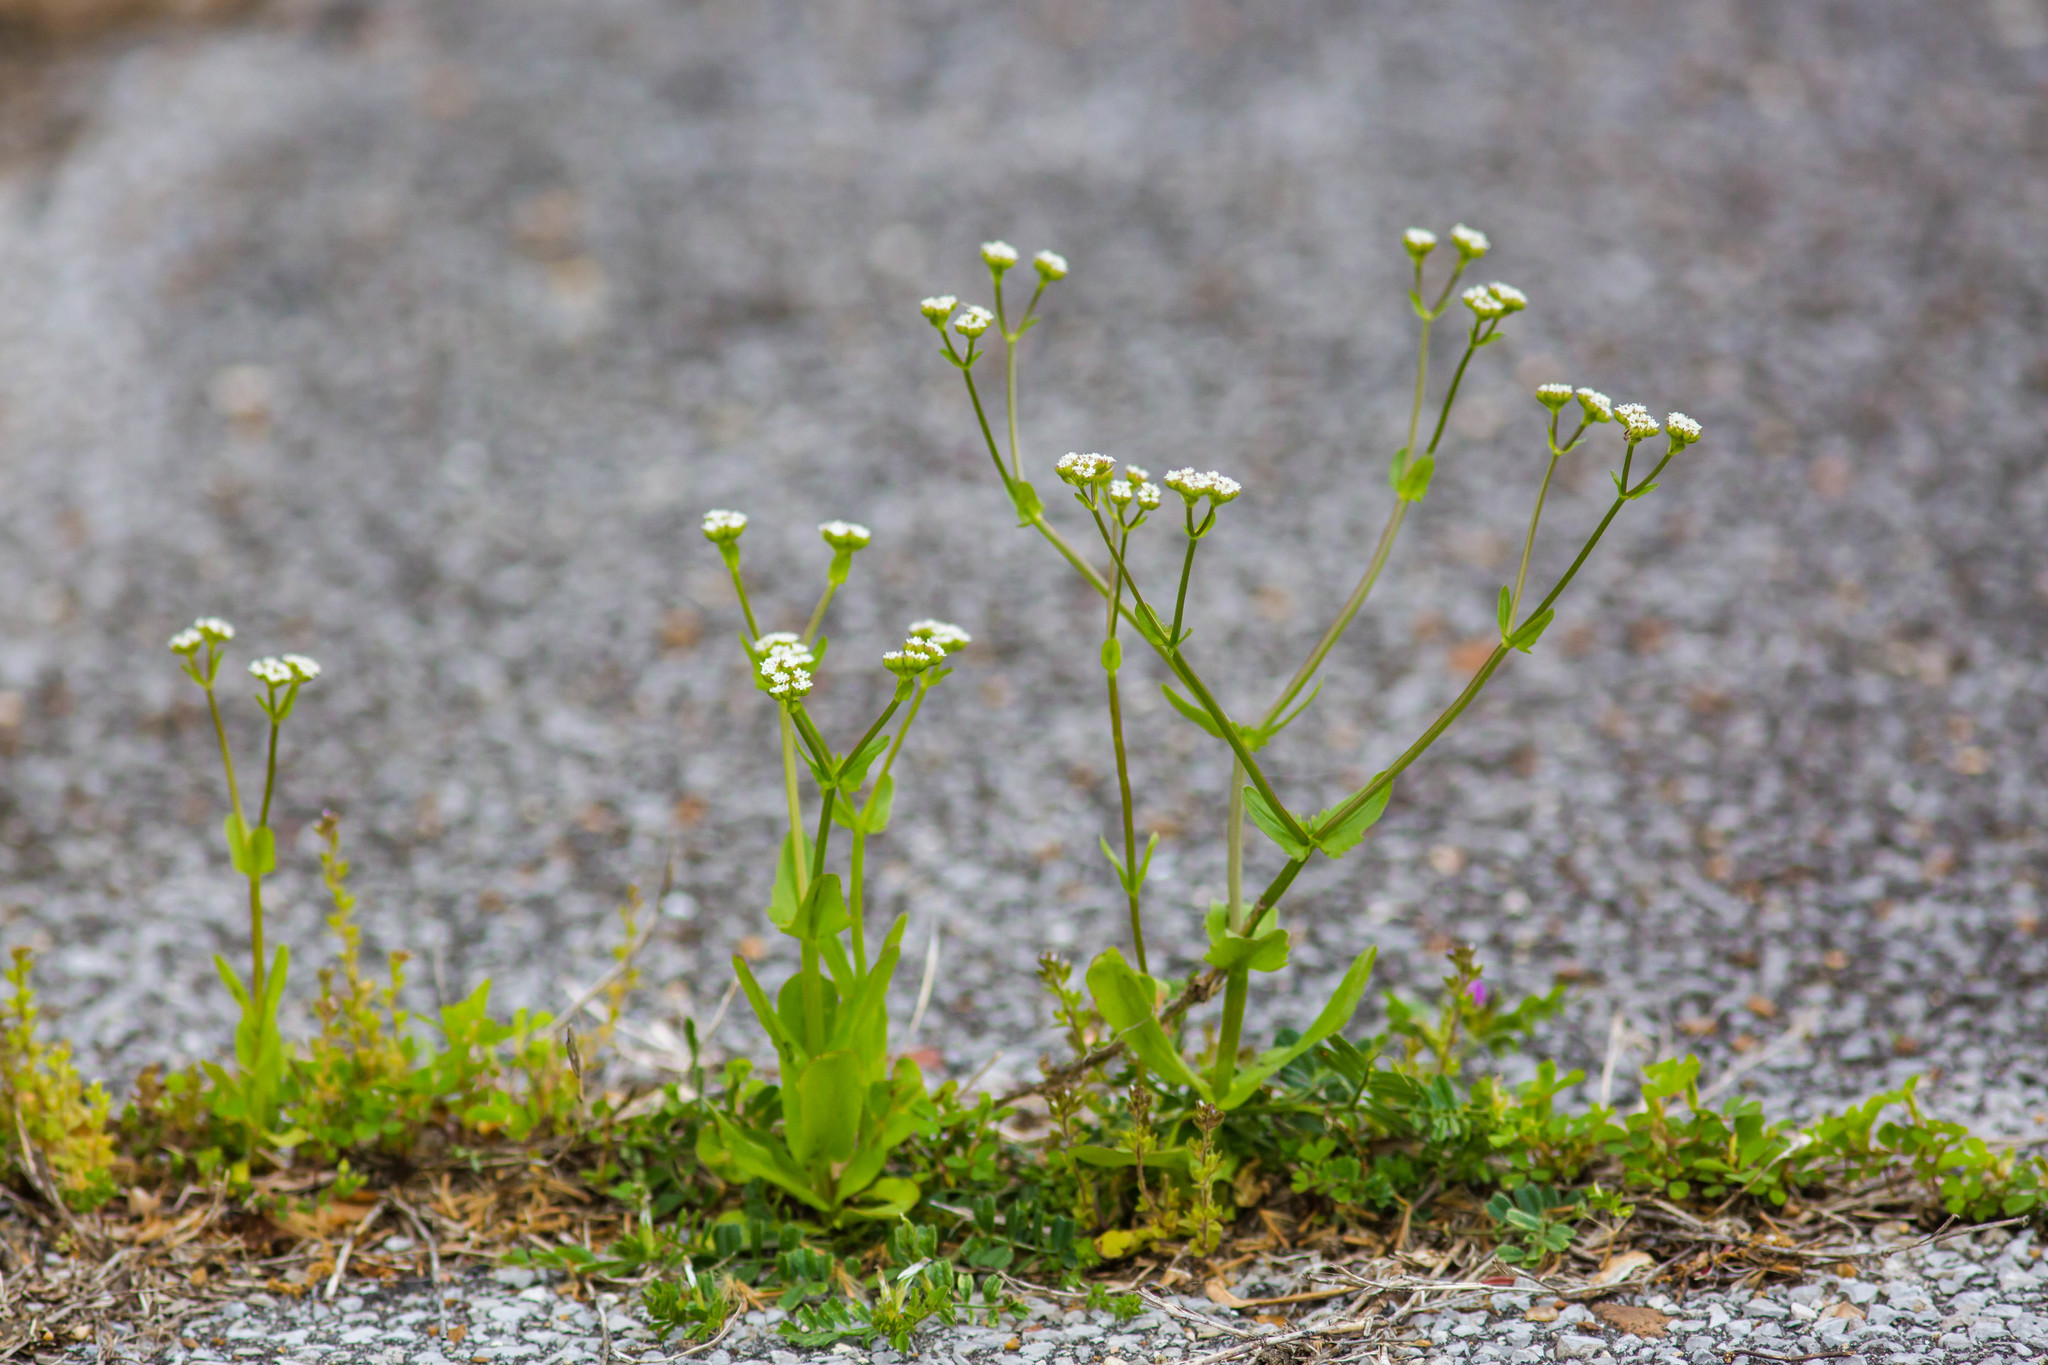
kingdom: Plantae
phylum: Tracheophyta
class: Magnoliopsida
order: Dipsacales
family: Caprifoliaceae
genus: Valerianella
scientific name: Valerianella radiata
